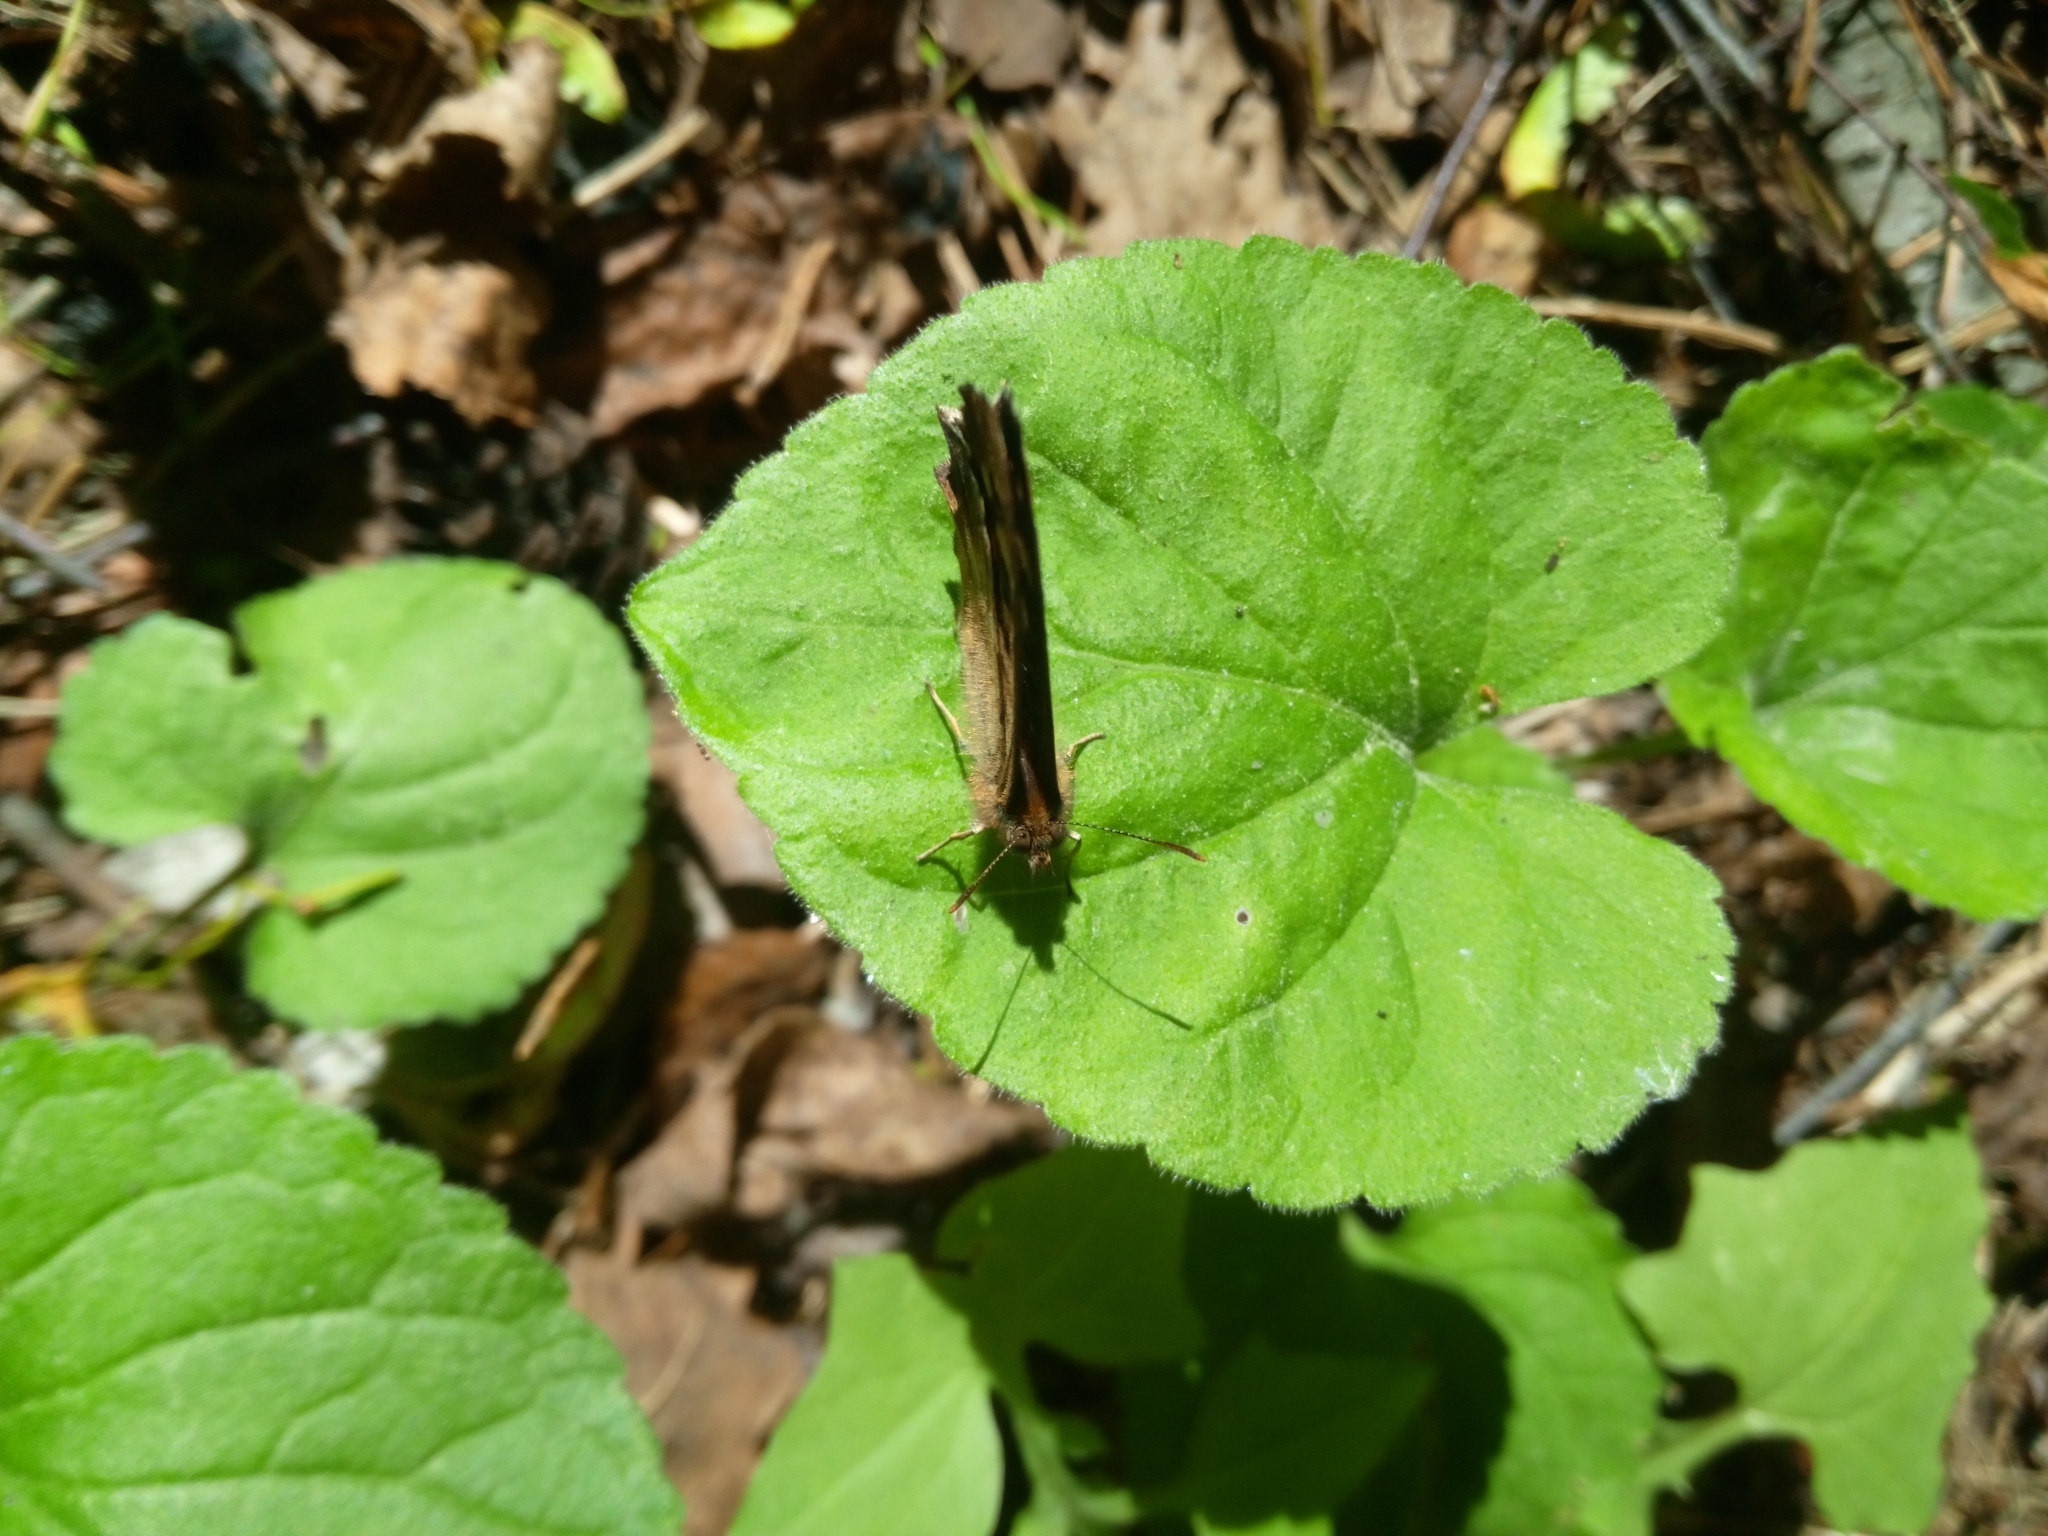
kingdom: Animalia
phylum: Arthropoda
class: Insecta
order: Lepidoptera
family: Nymphalidae
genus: Pararge
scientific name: Pararge aegeria
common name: Speckled wood
